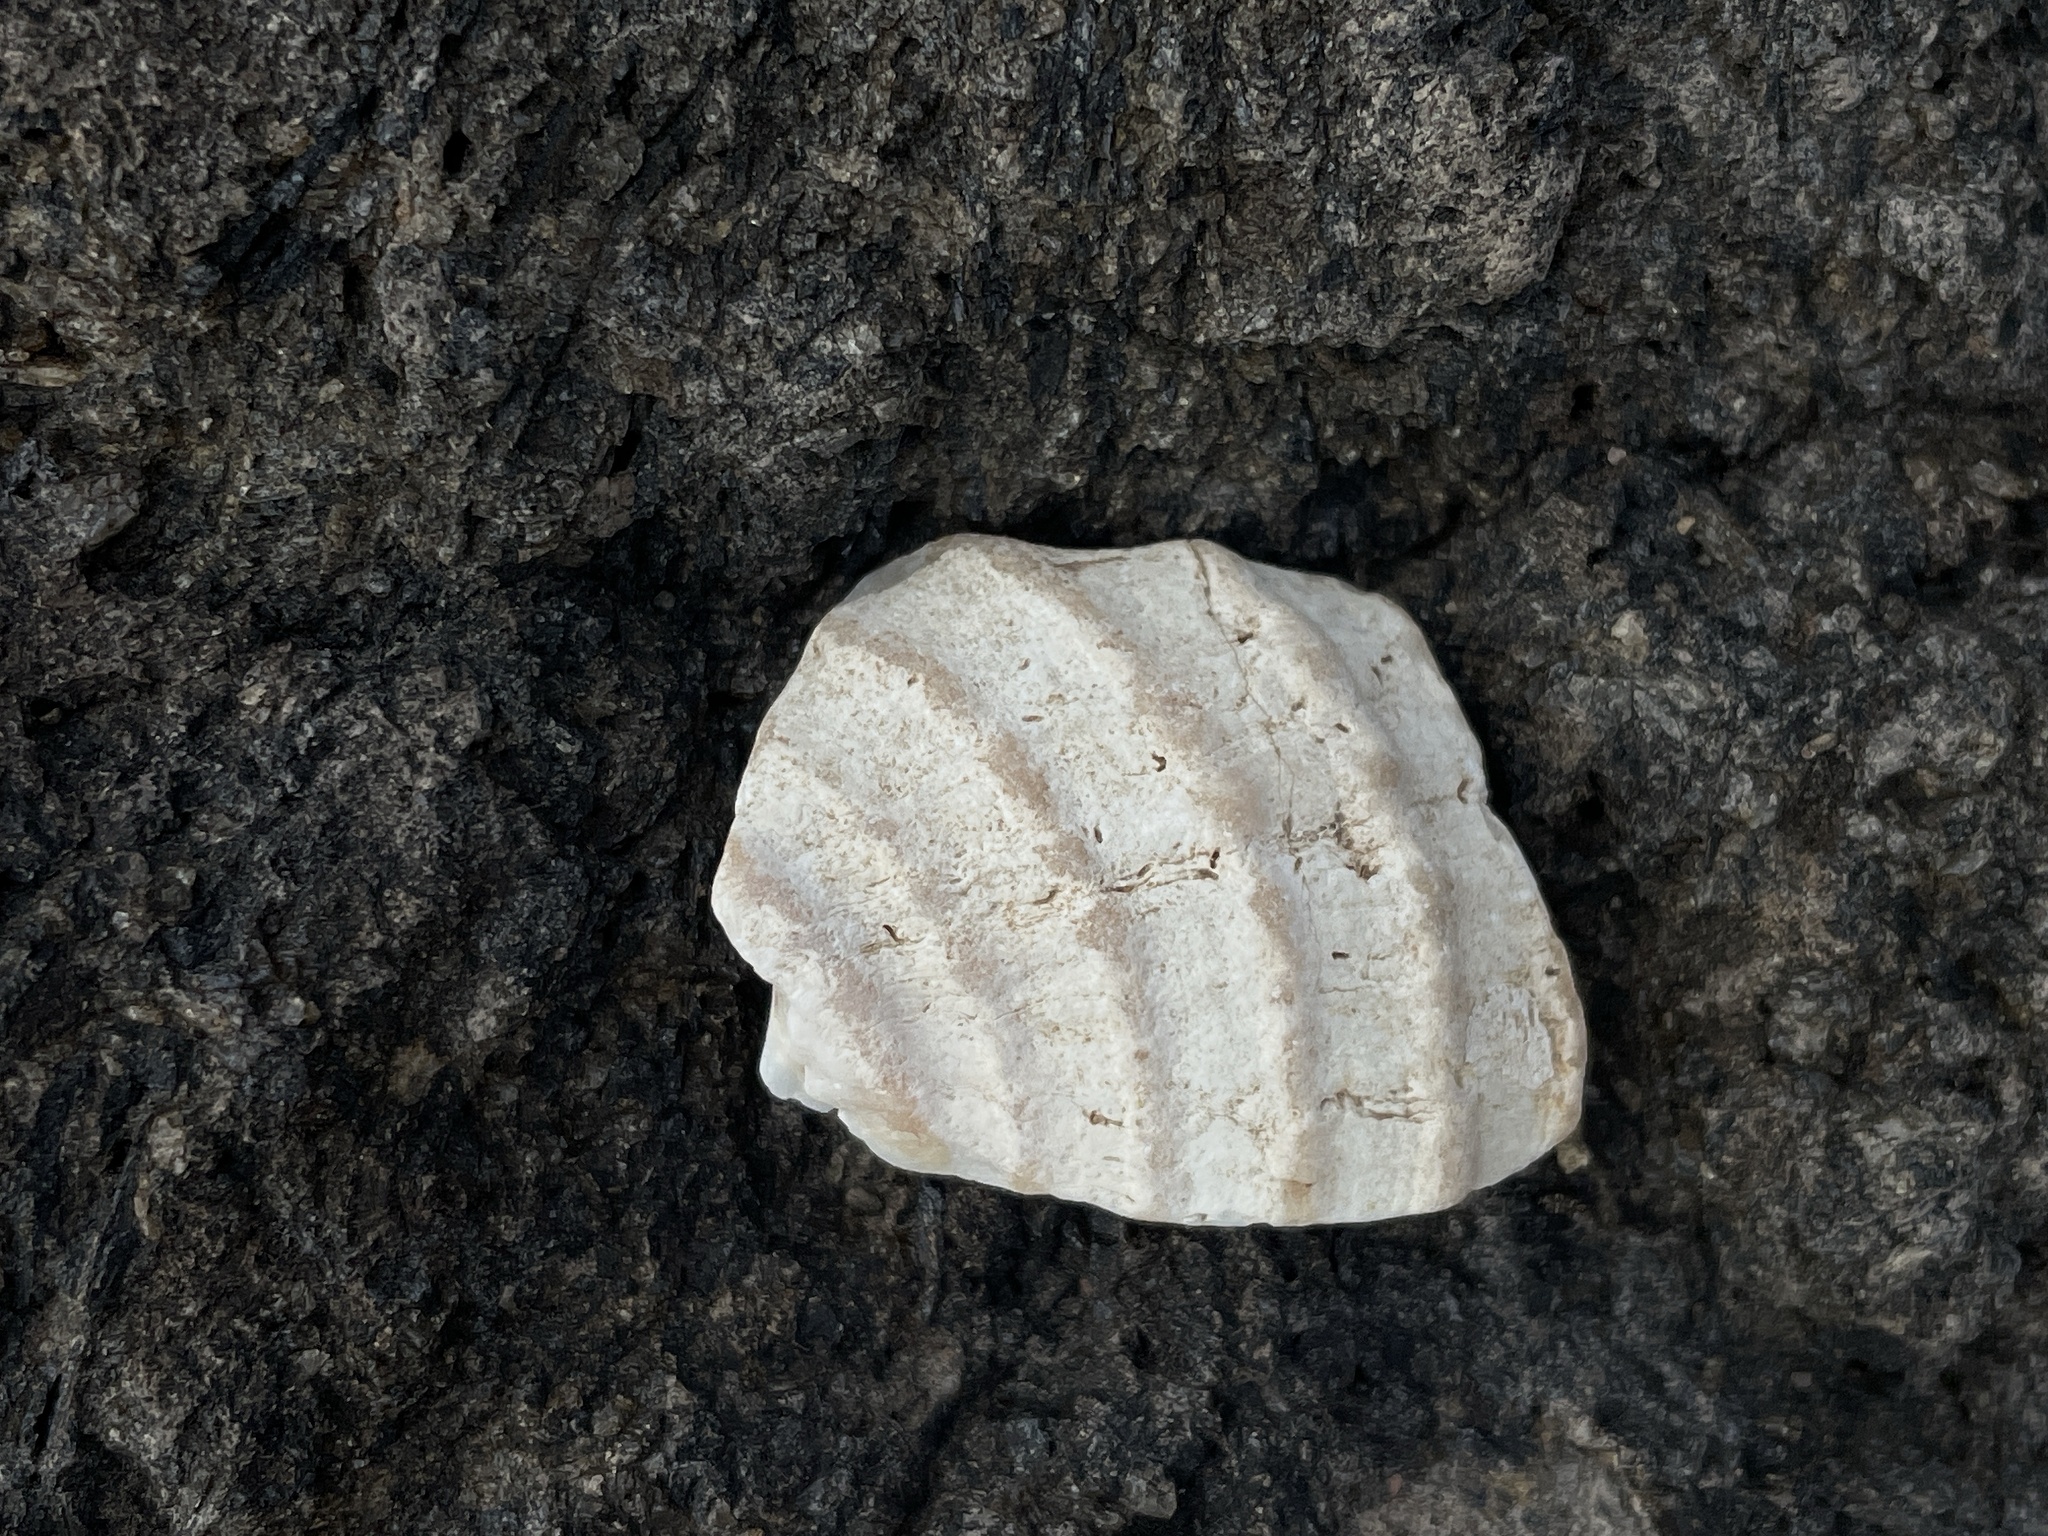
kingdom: Animalia
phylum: Mollusca
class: Gastropoda
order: Neogastropoda
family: Buccinidae
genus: Neptunea
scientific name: Neptunea decemcostata
